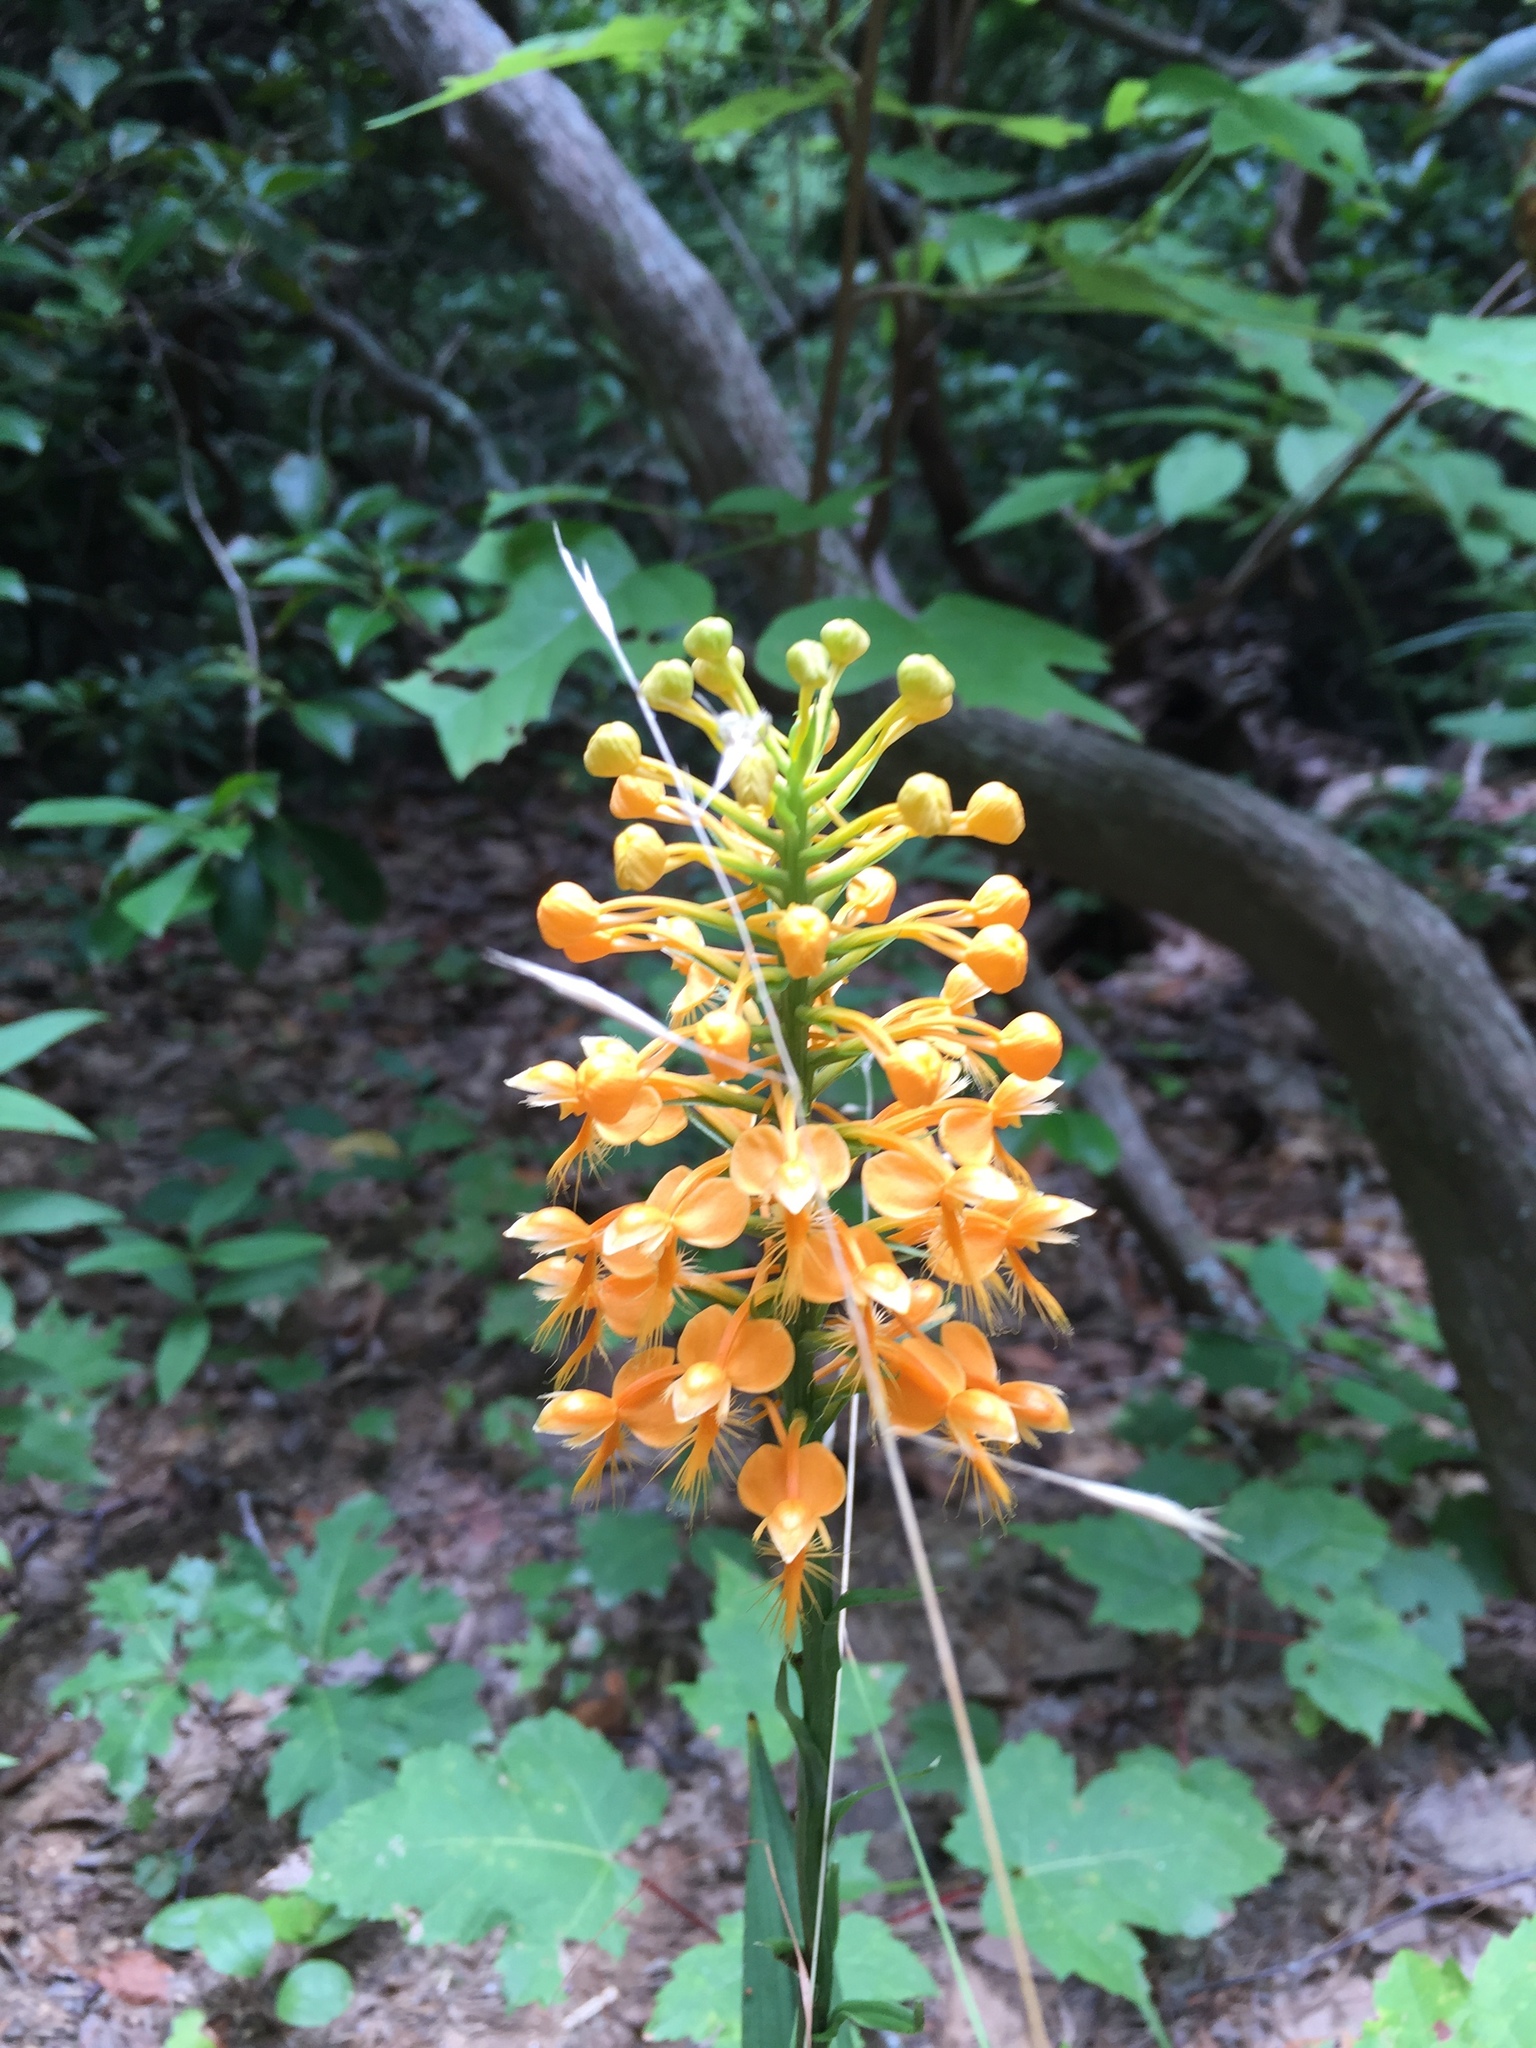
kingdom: Plantae
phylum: Tracheophyta
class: Liliopsida
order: Asparagales
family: Orchidaceae
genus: Platanthera
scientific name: Platanthera ciliaris
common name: Yellow fringed orchid
